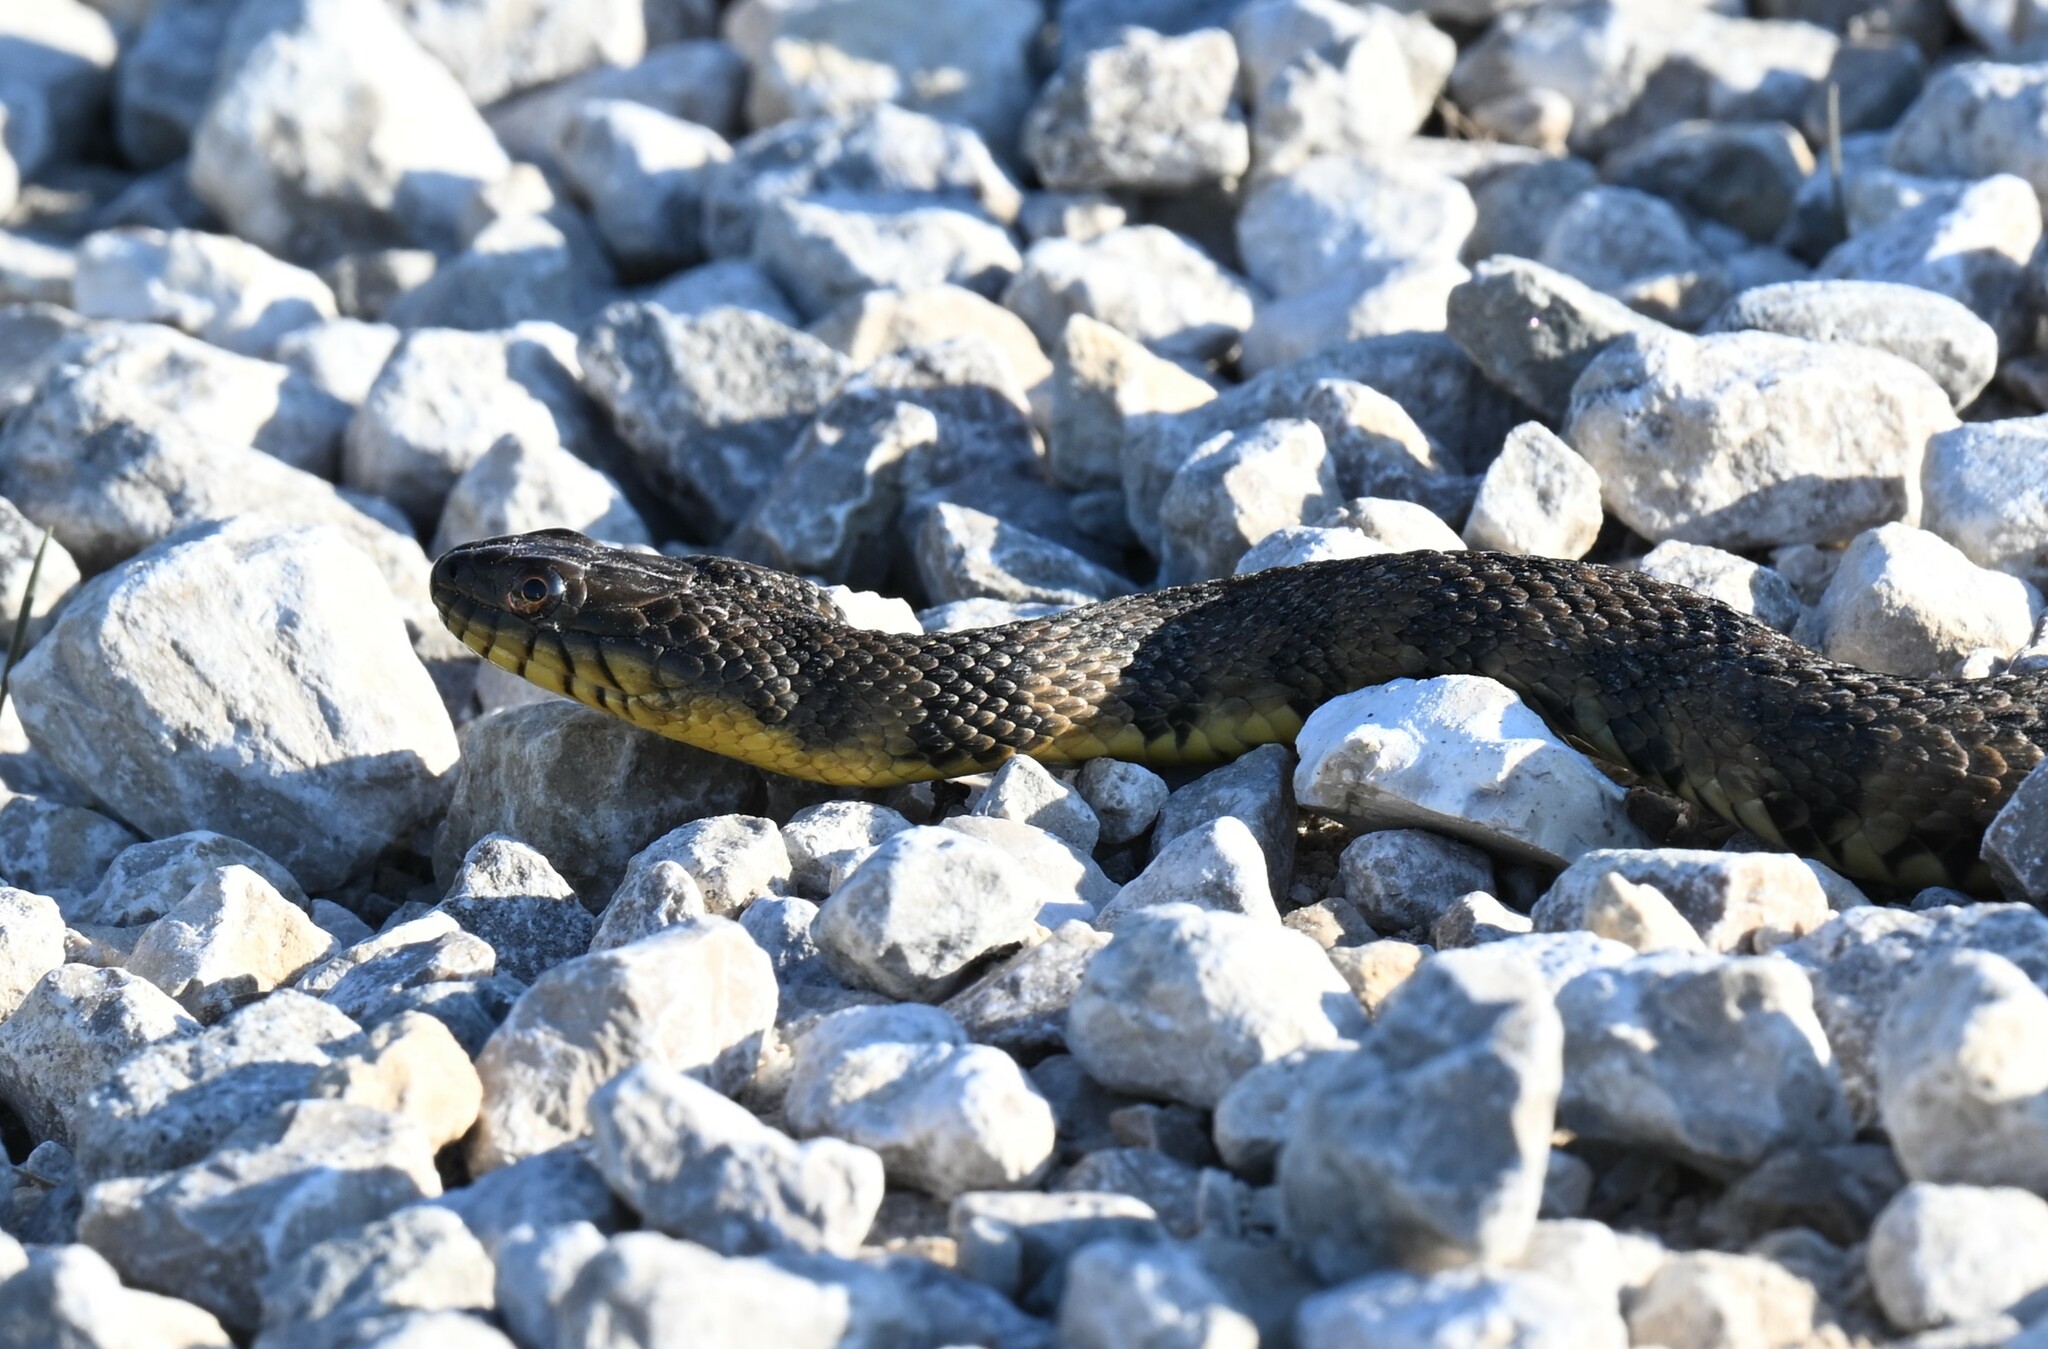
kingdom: Animalia
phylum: Chordata
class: Squamata
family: Colubridae
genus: Nerodia
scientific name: Nerodia rhombifer
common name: Diamondback water snake
